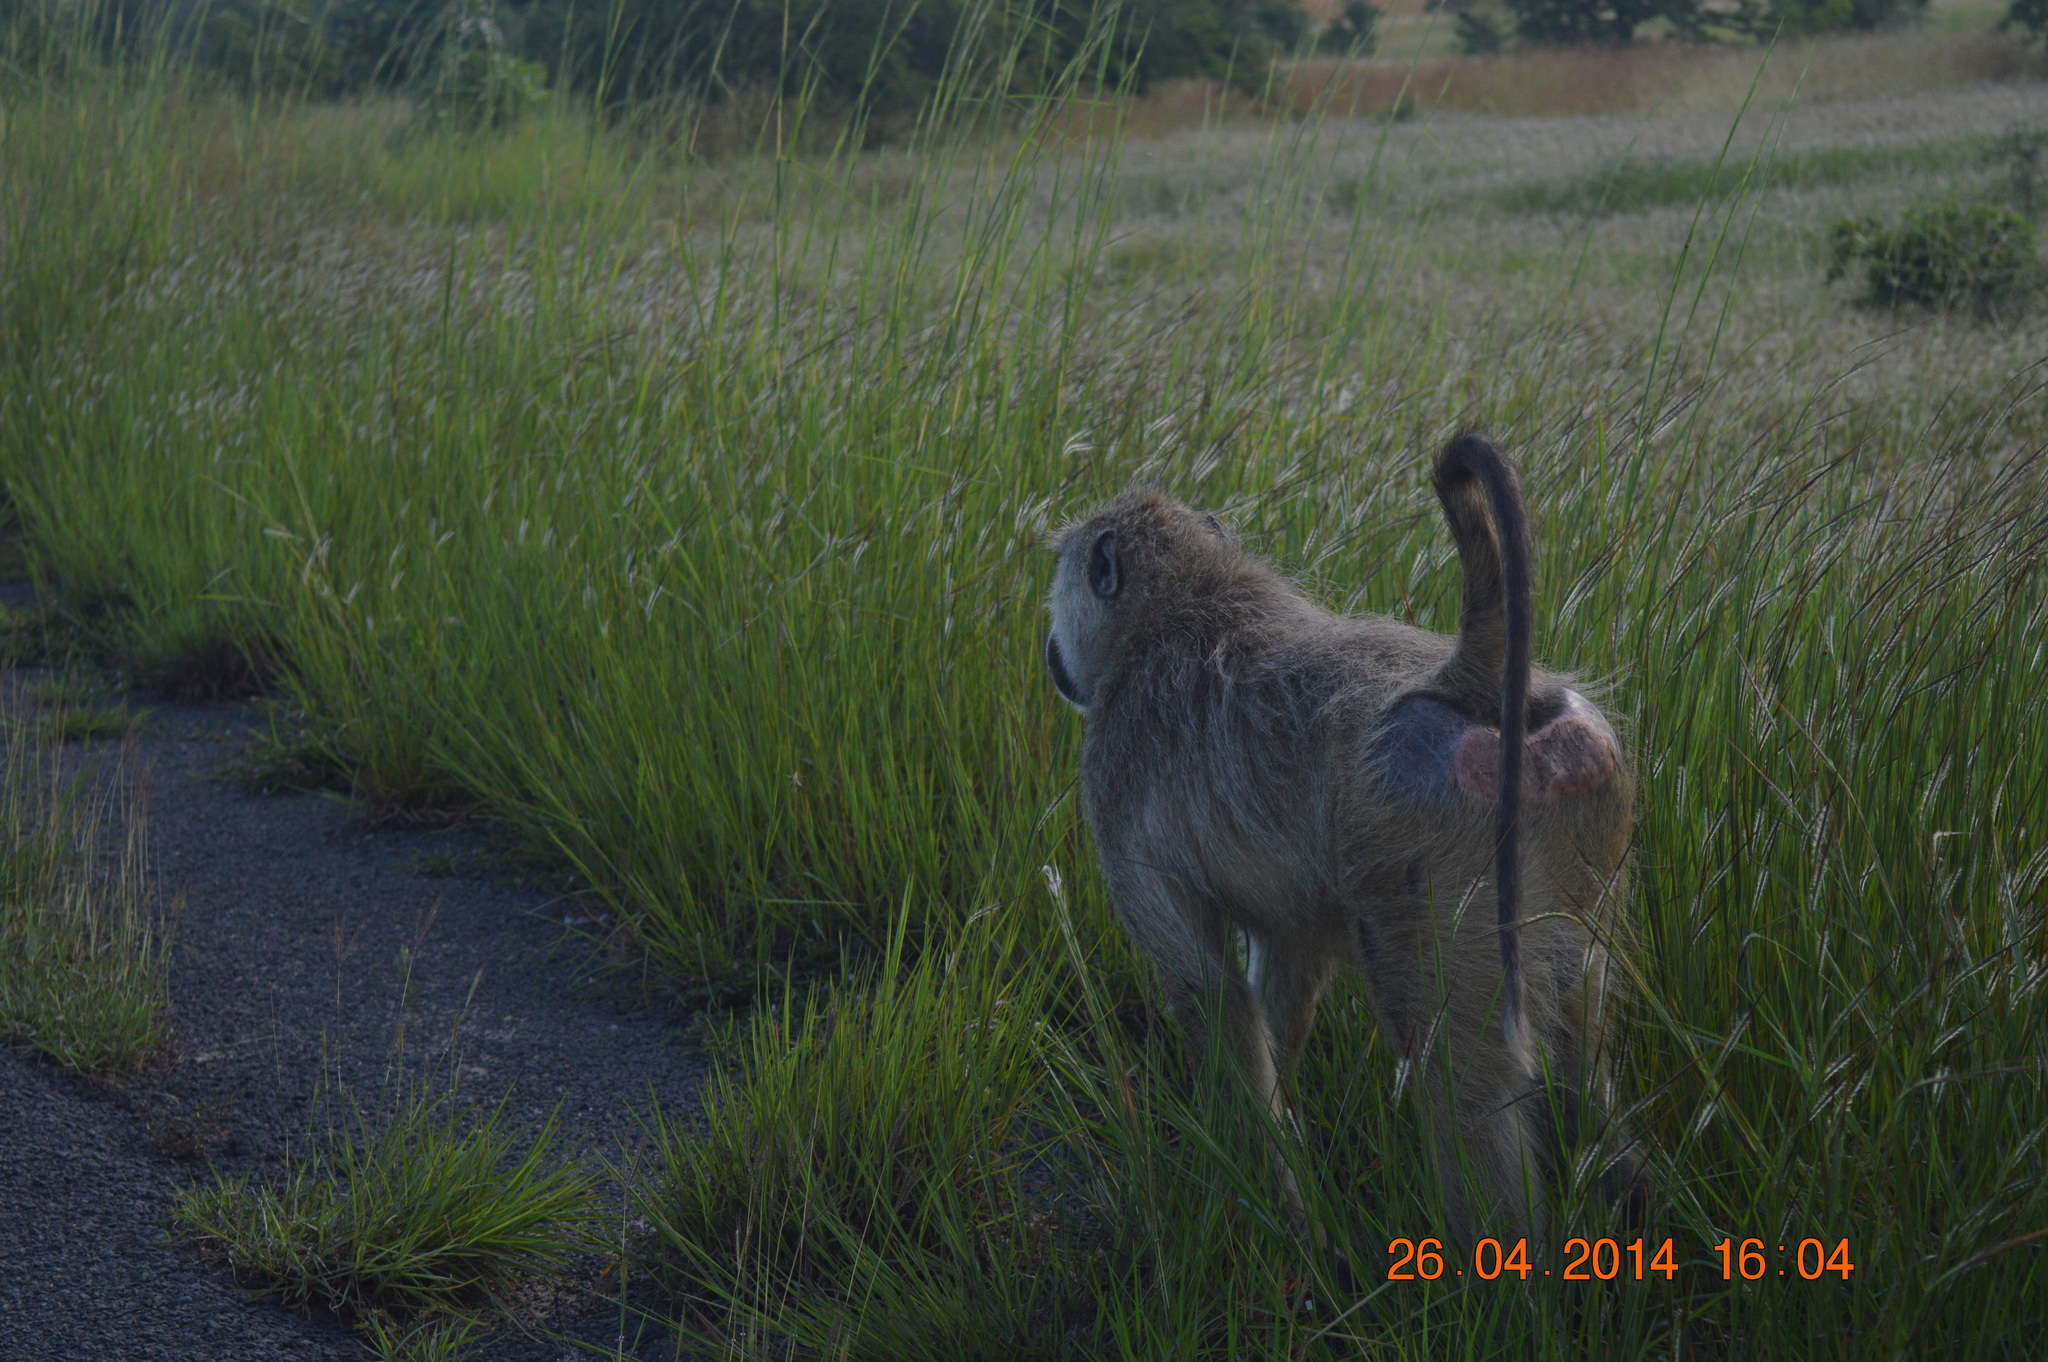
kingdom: Animalia
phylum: Chordata
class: Mammalia
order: Primates
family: Cercopithecidae
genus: Papio
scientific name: Papio cynocephalus
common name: Yellow baboon
